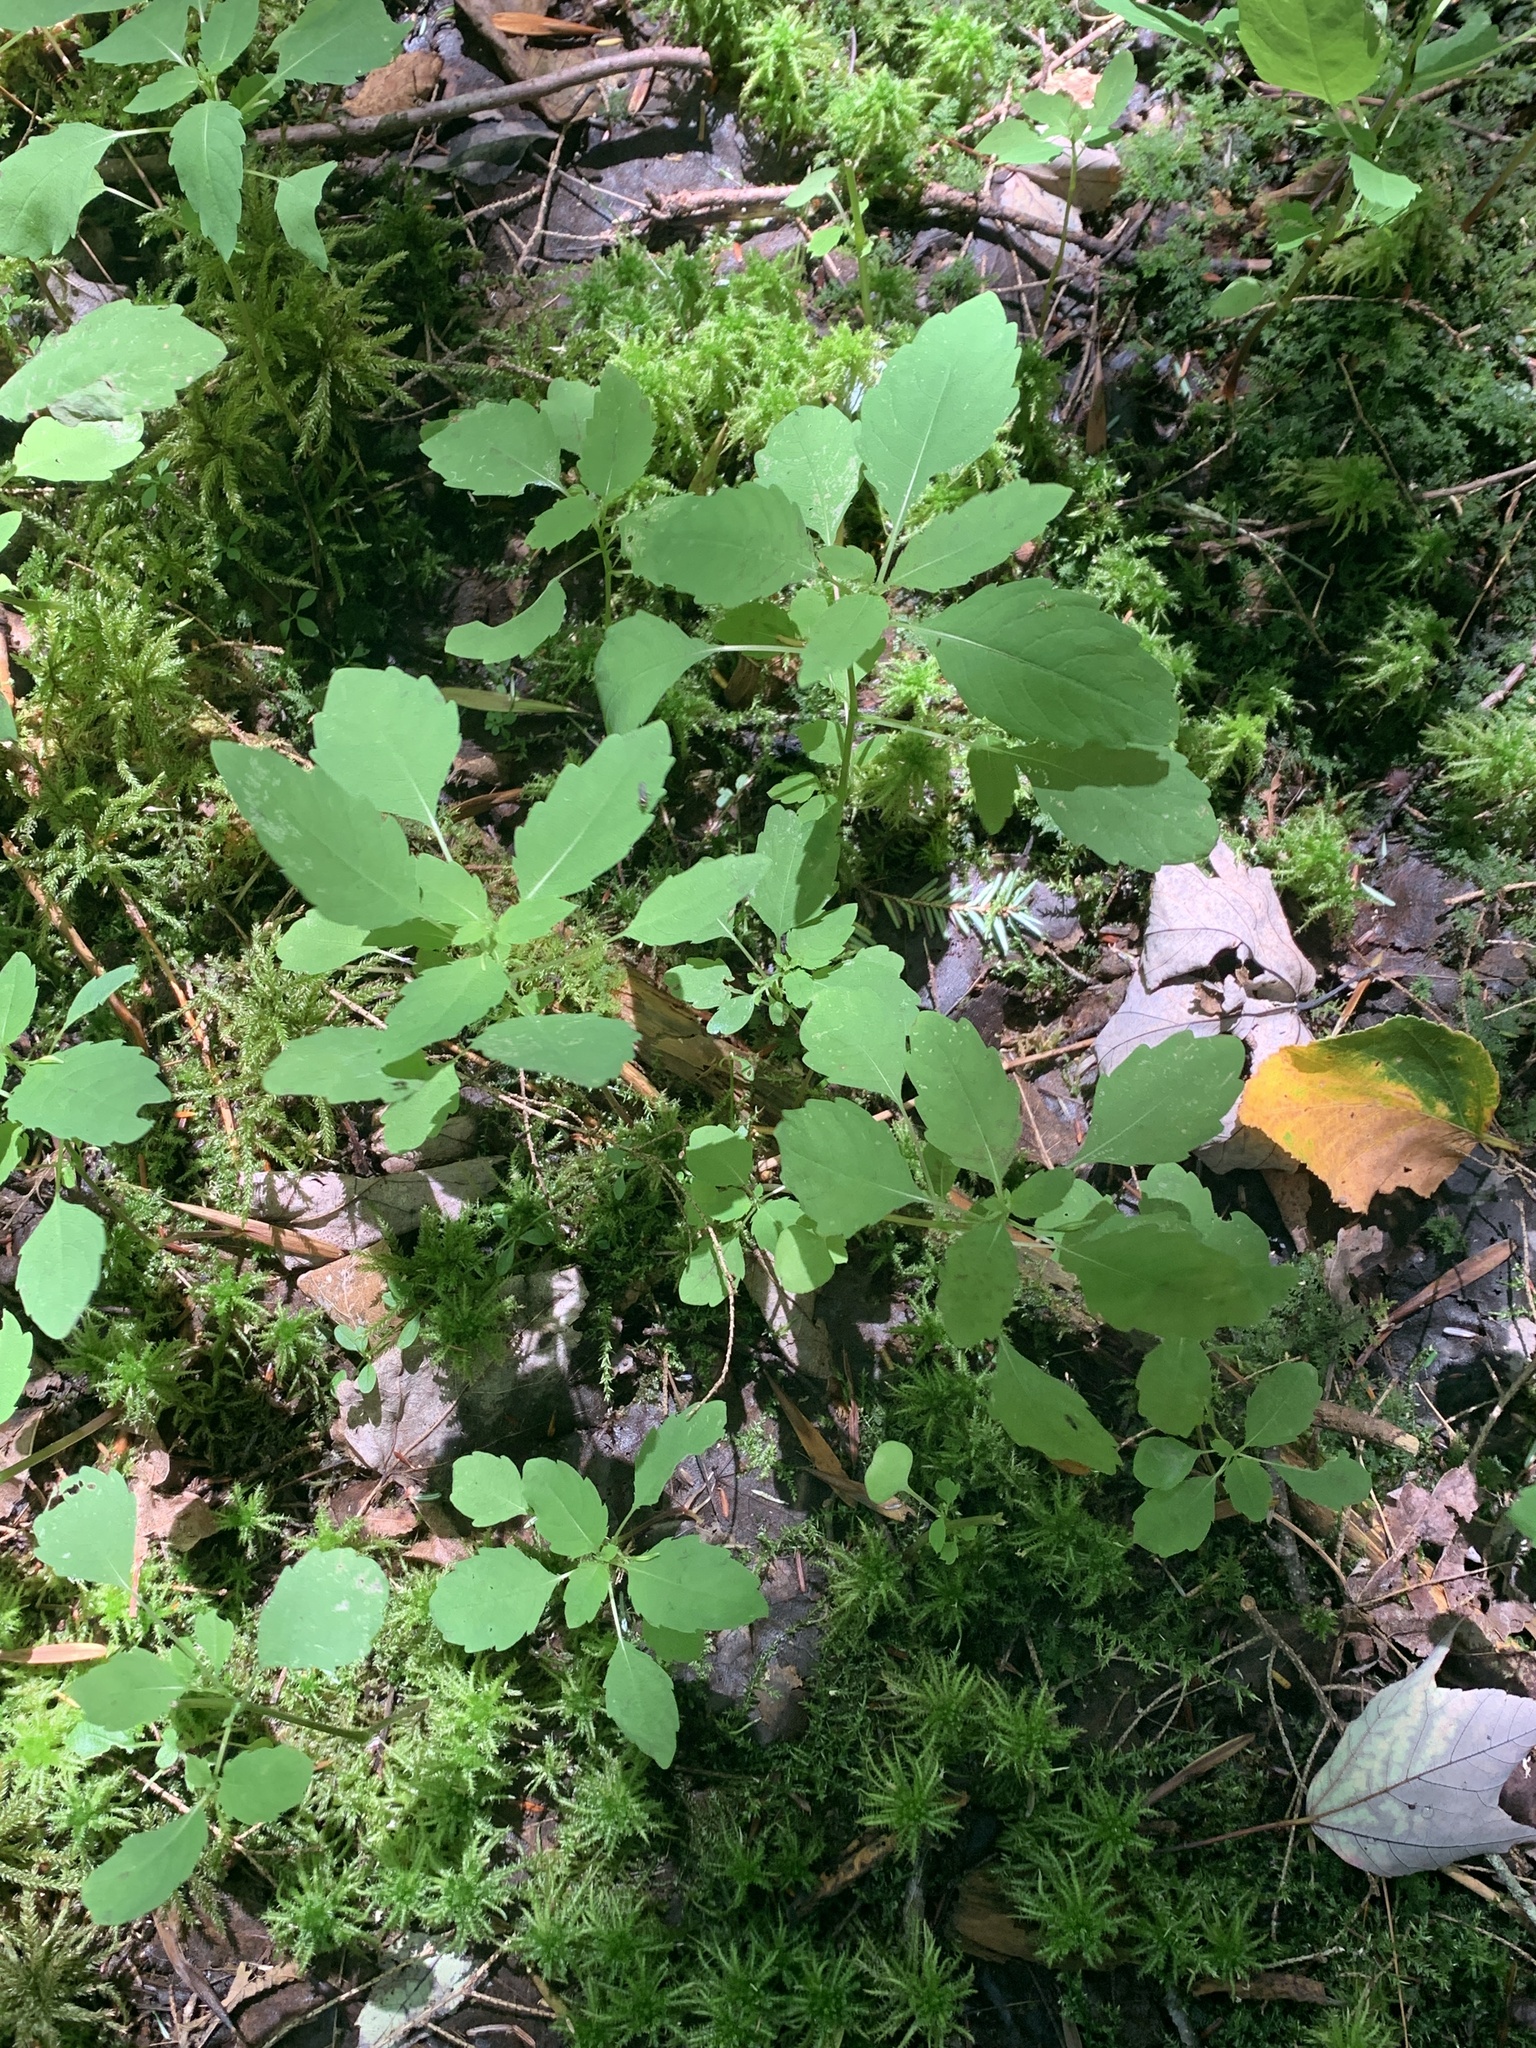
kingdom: Plantae
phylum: Tracheophyta
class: Magnoliopsida
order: Ericales
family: Balsaminaceae
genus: Impatiens
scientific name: Impatiens capensis
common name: Orange balsam
